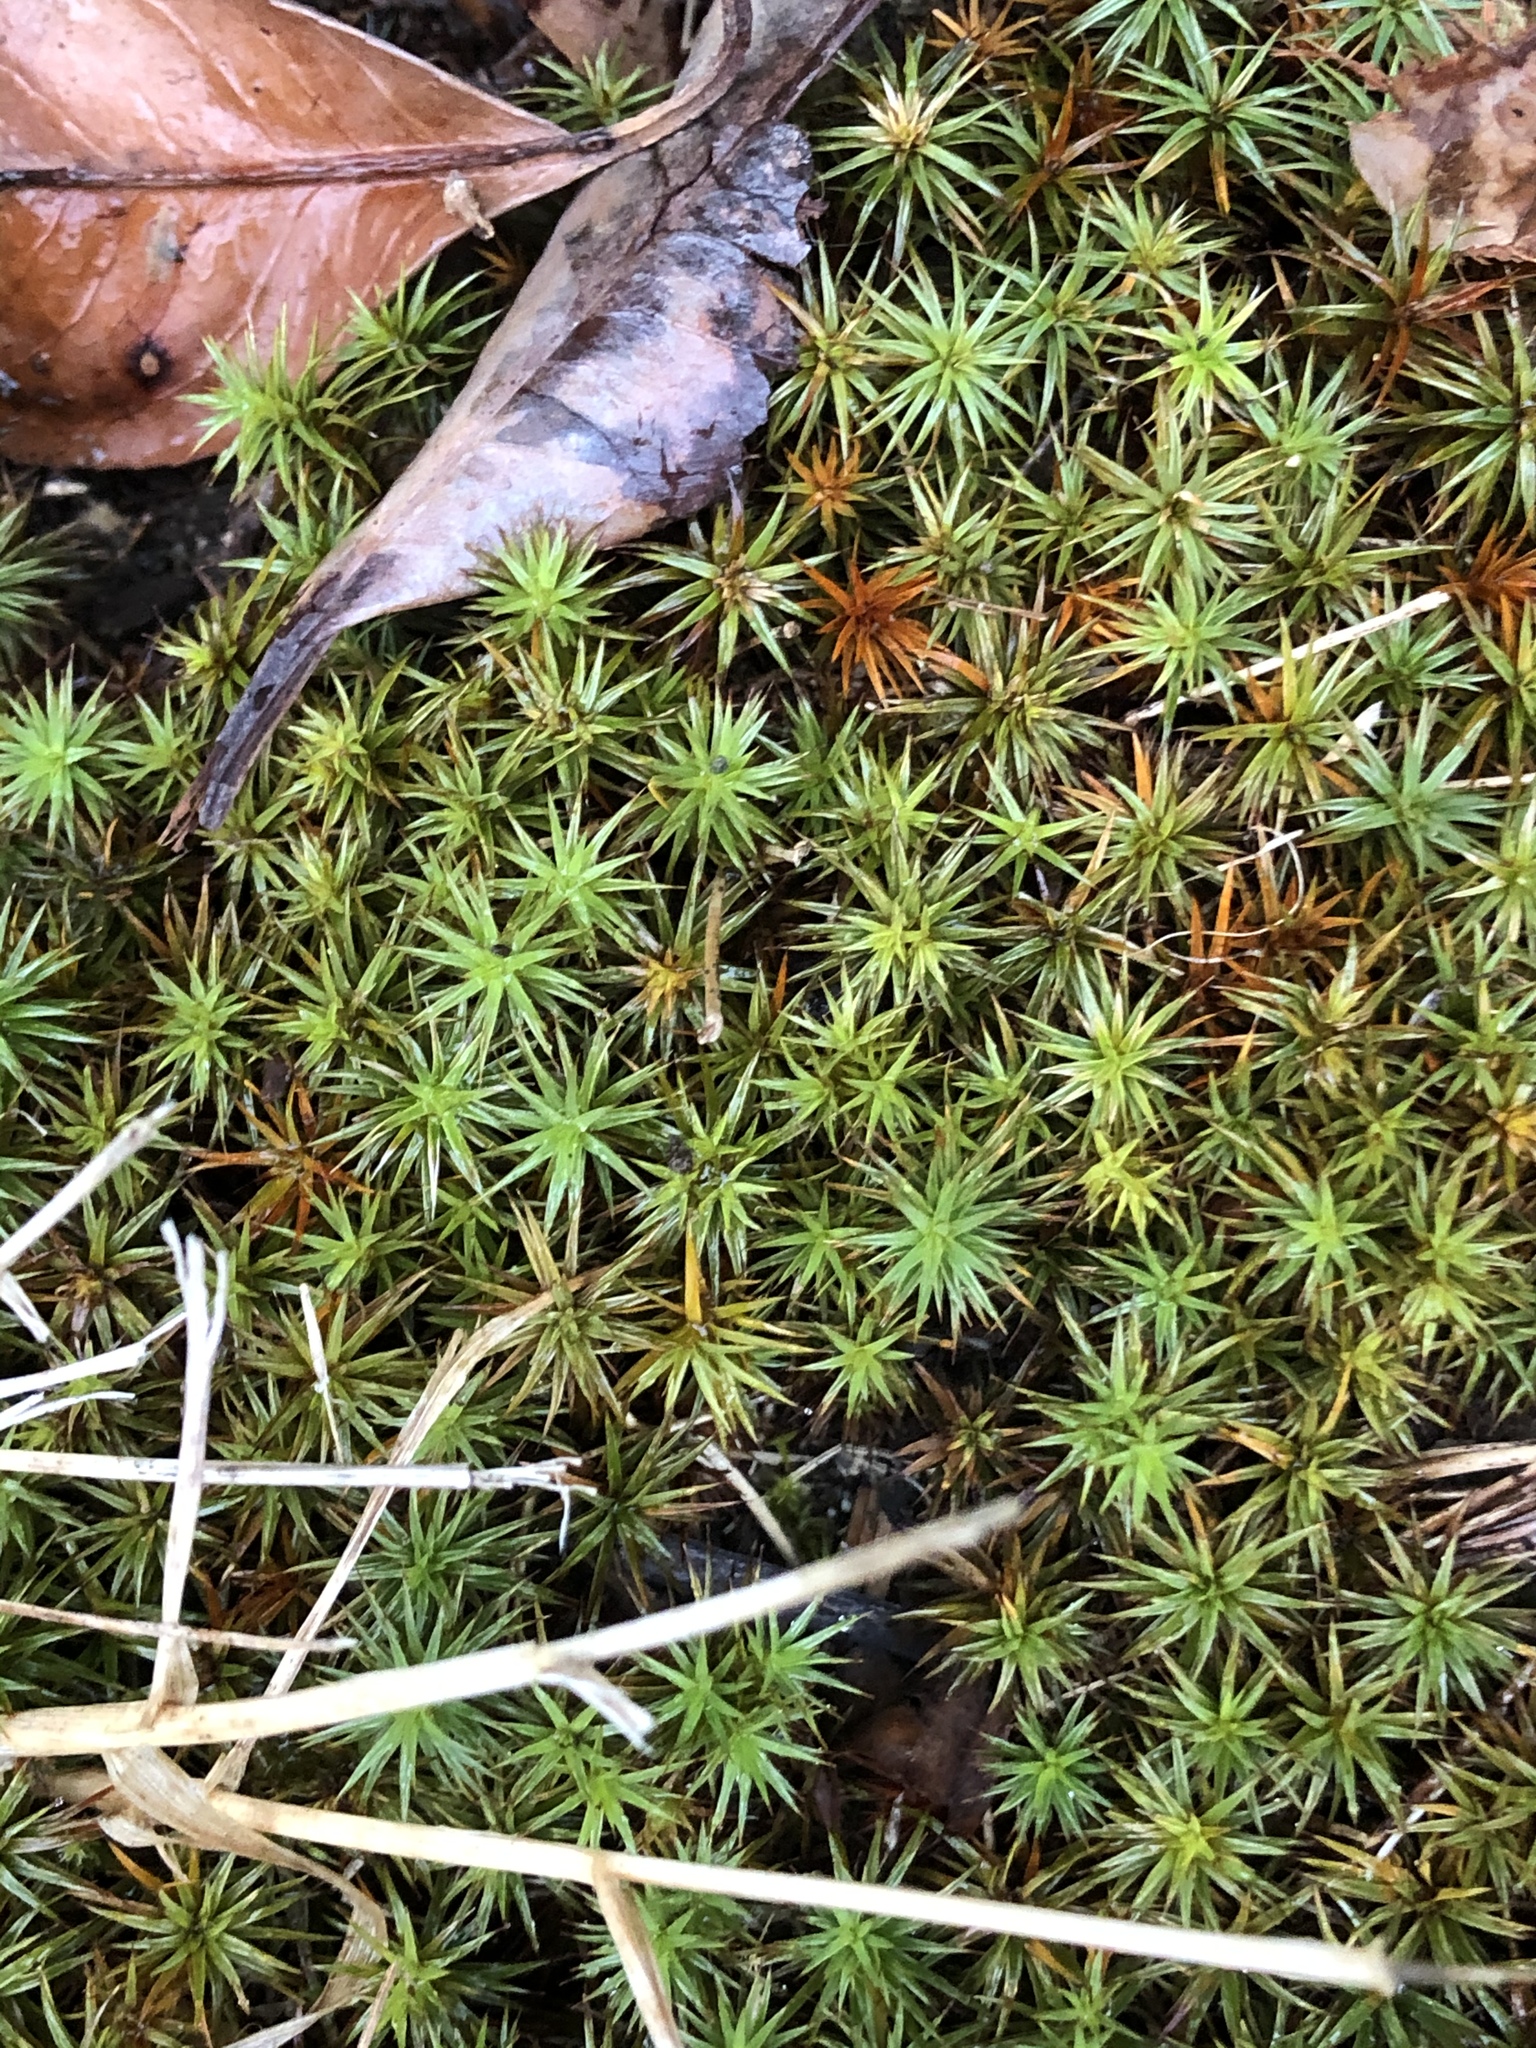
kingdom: Plantae
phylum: Bryophyta
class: Polytrichopsida
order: Polytrichales
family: Polytrichaceae
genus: Polytrichum
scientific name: Polytrichum juniperinum
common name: Juniper haircap moss
